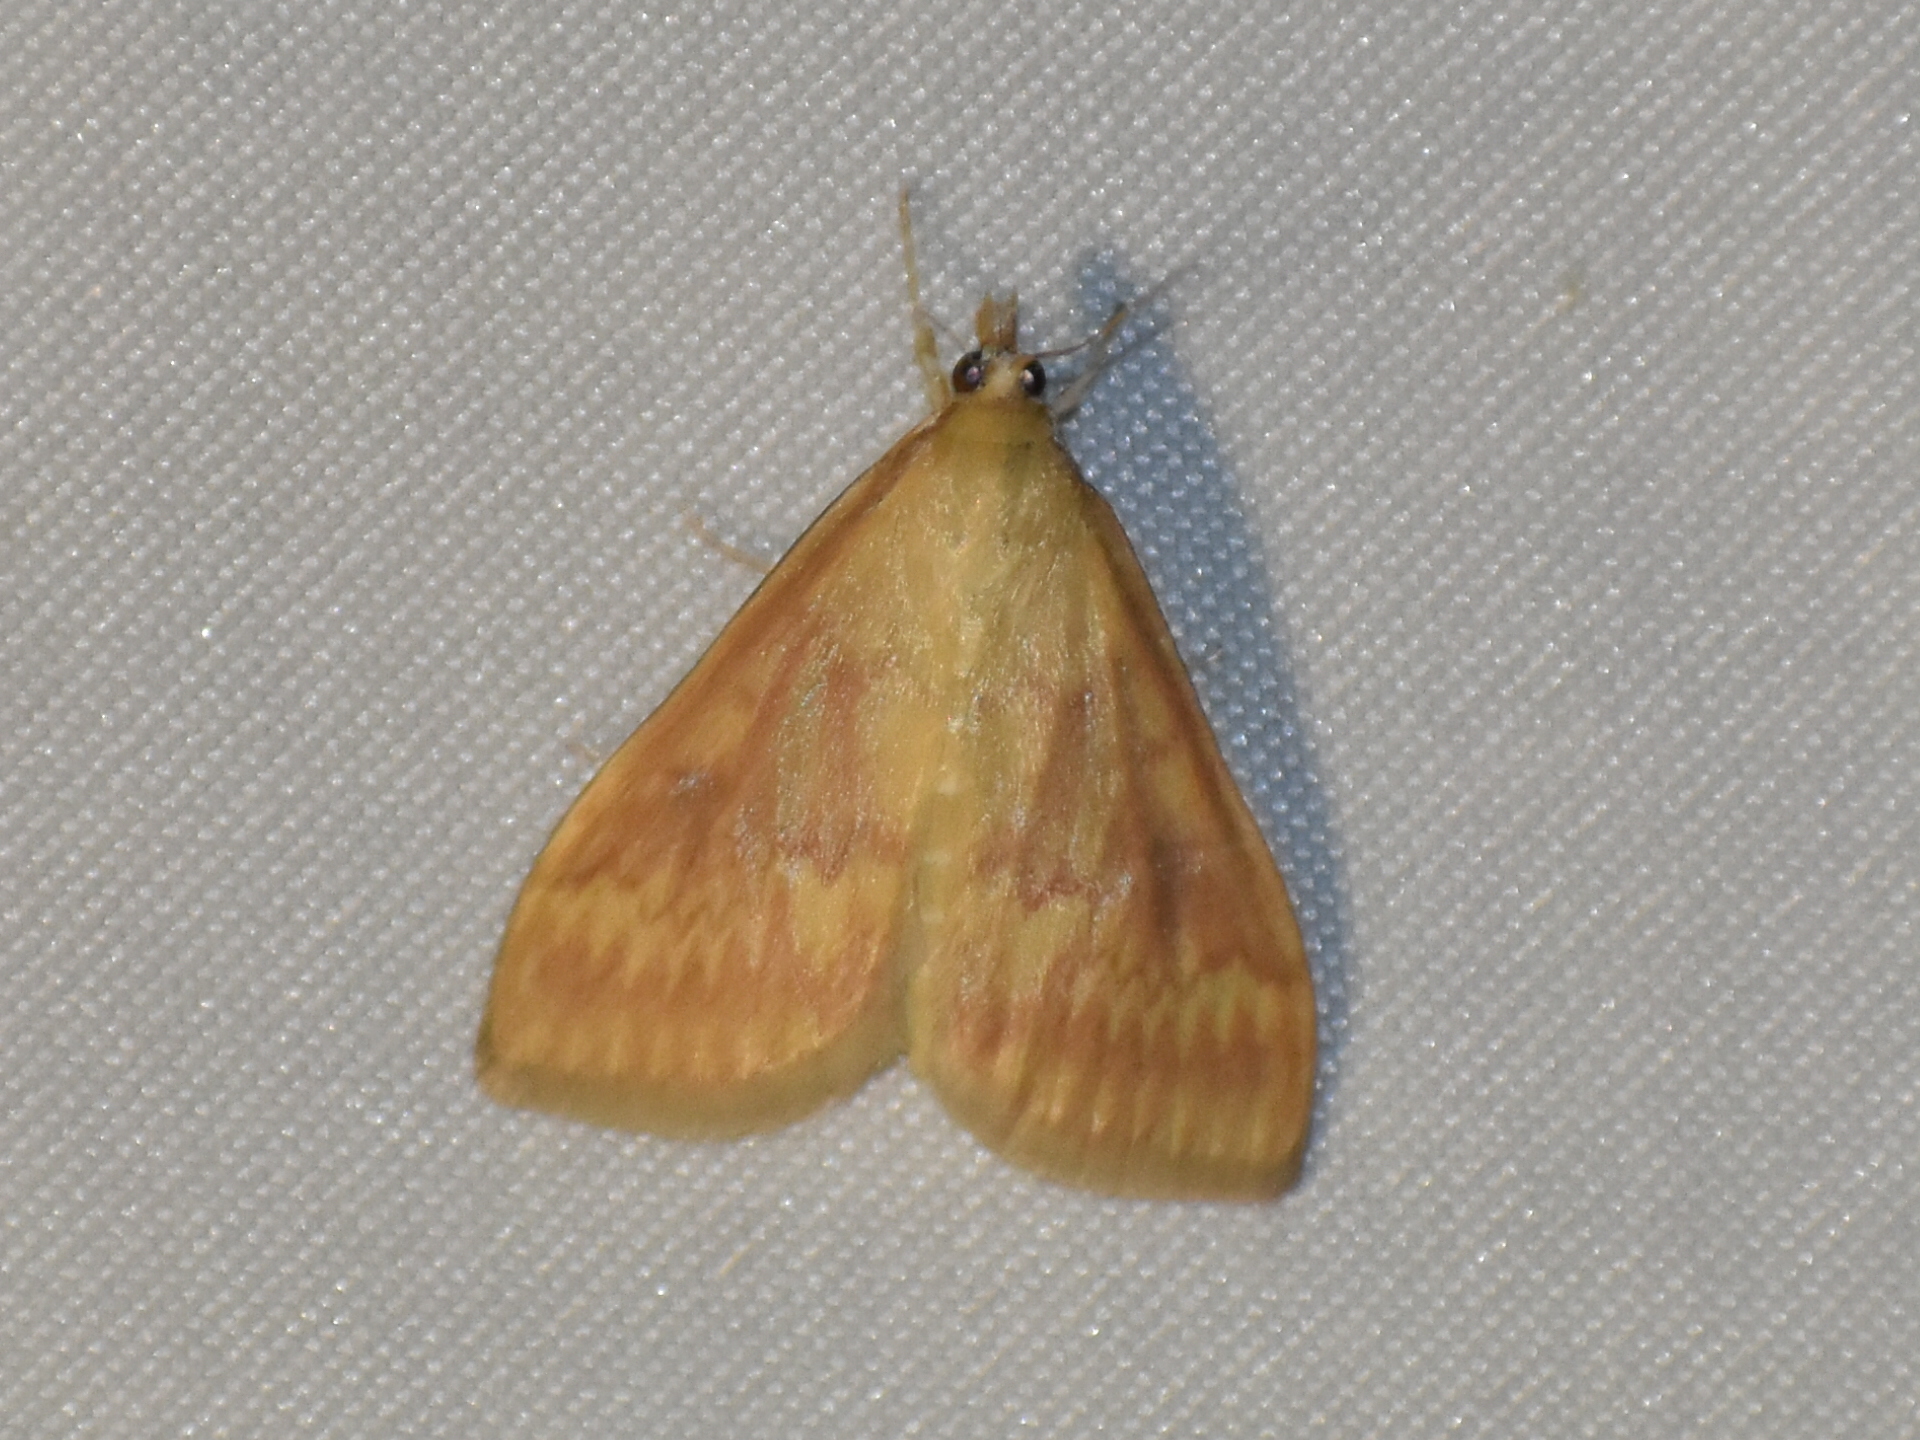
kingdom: Animalia
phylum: Arthropoda
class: Insecta
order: Lepidoptera
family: Crambidae
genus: Ostrinia
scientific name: Ostrinia nubilalis
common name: European corn borer
